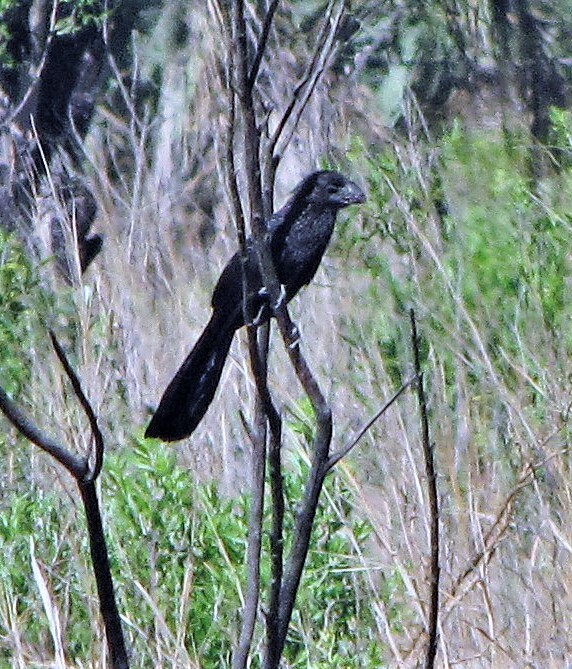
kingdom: Animalia
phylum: Chordata
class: Aves
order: Cuculiformes
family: Cuculidae
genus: Crotophaga
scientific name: Crotophaga ani
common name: Smooth-billed ani
